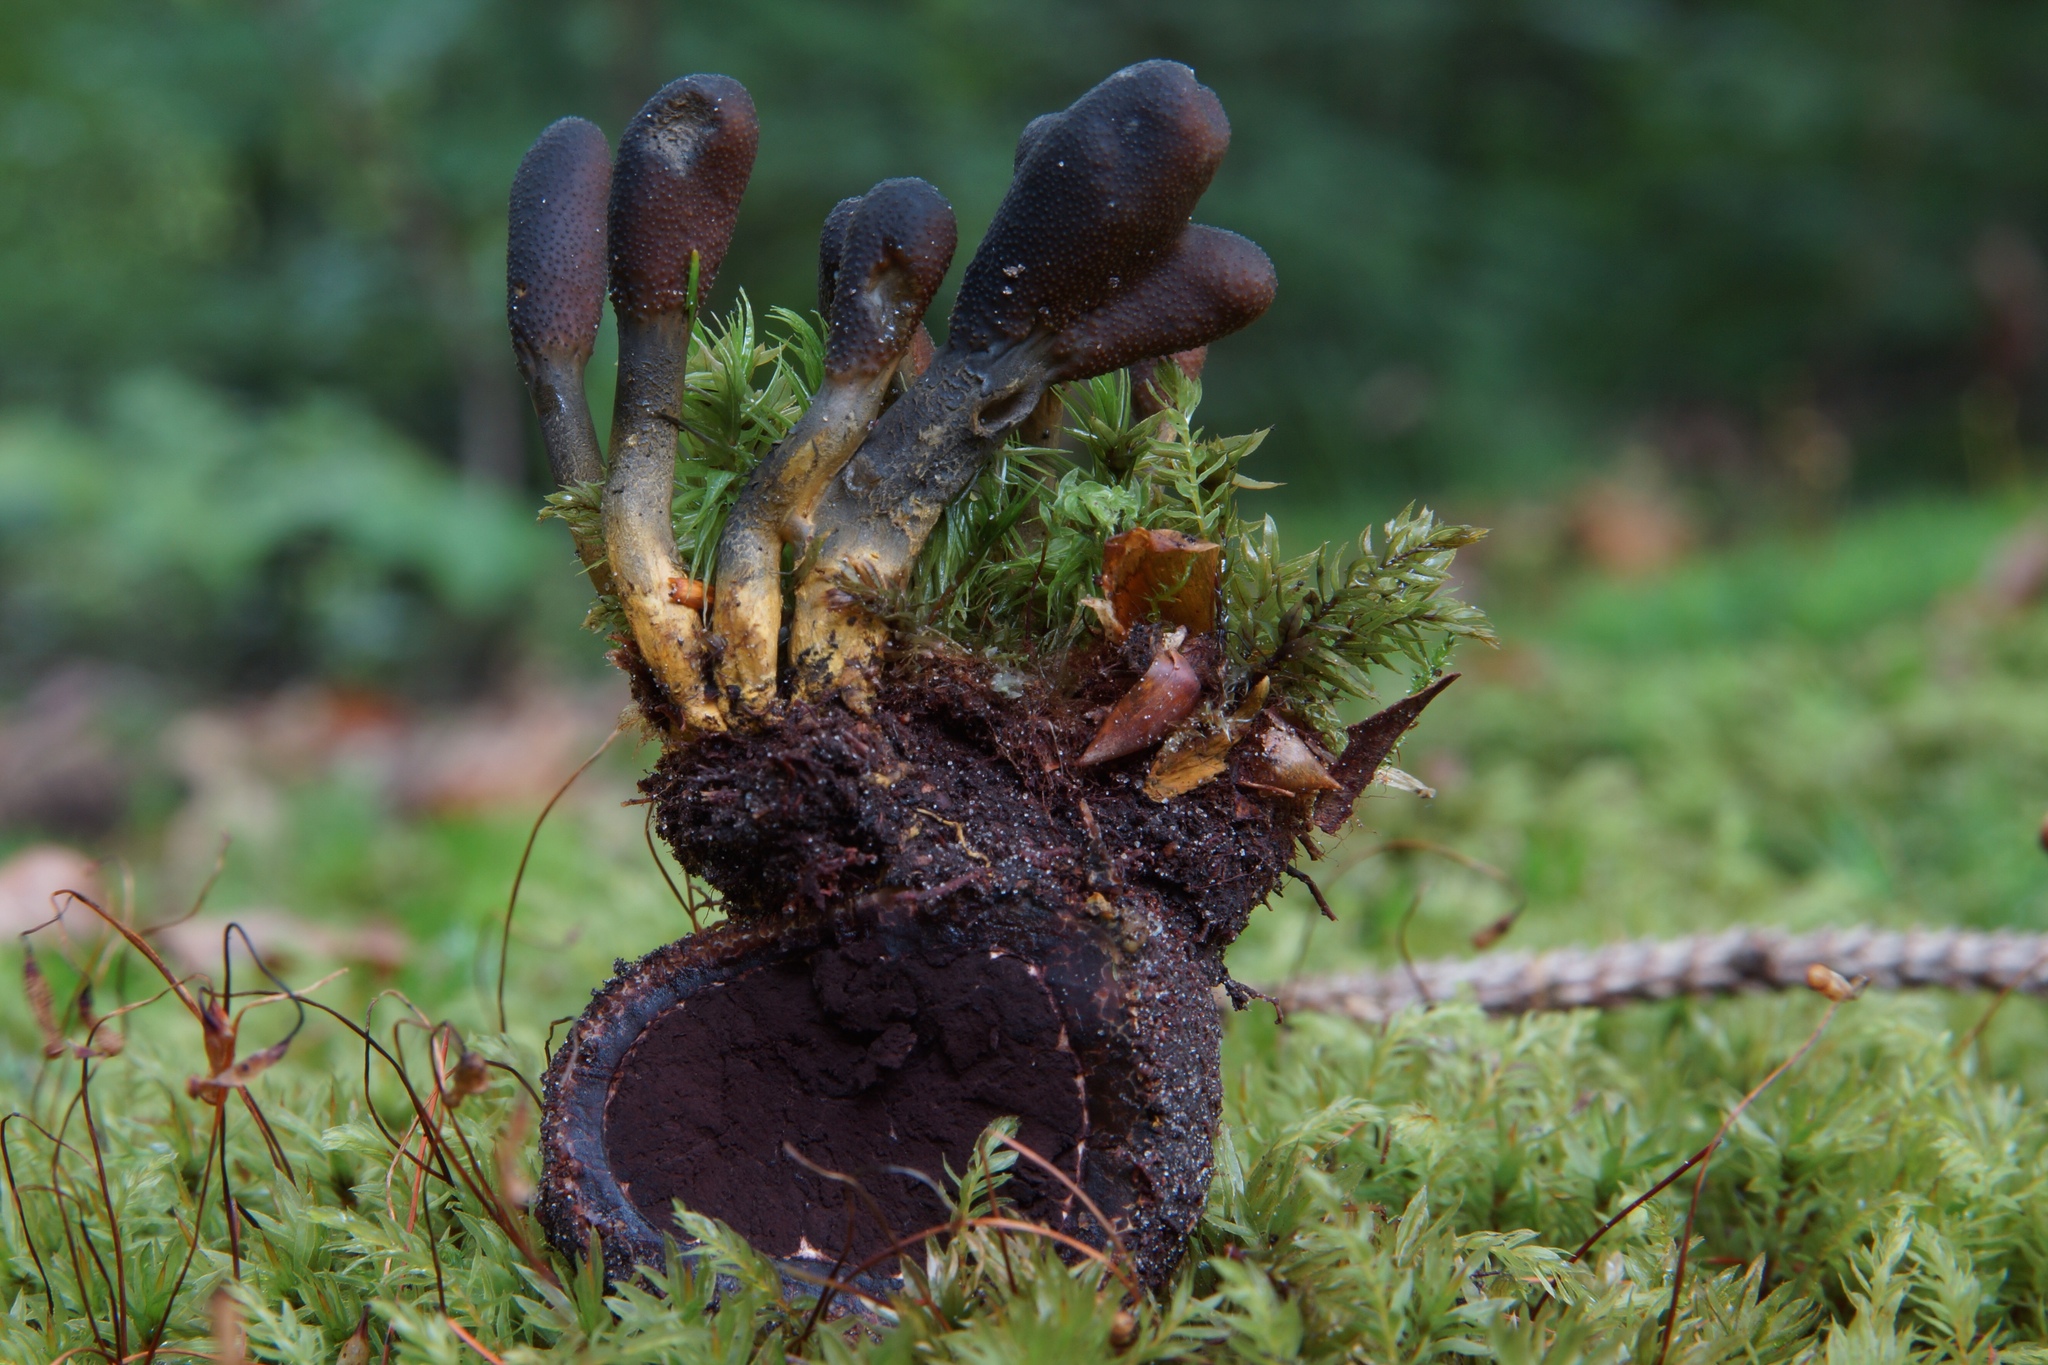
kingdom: Fungi
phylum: Ascomycota
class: Sordariomycetes
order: Hypocreales
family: Ophiocordycipitaceae
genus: Tolypocladium
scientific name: Tolypocladium ophioglossoides
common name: Snaketongue truffleclub
